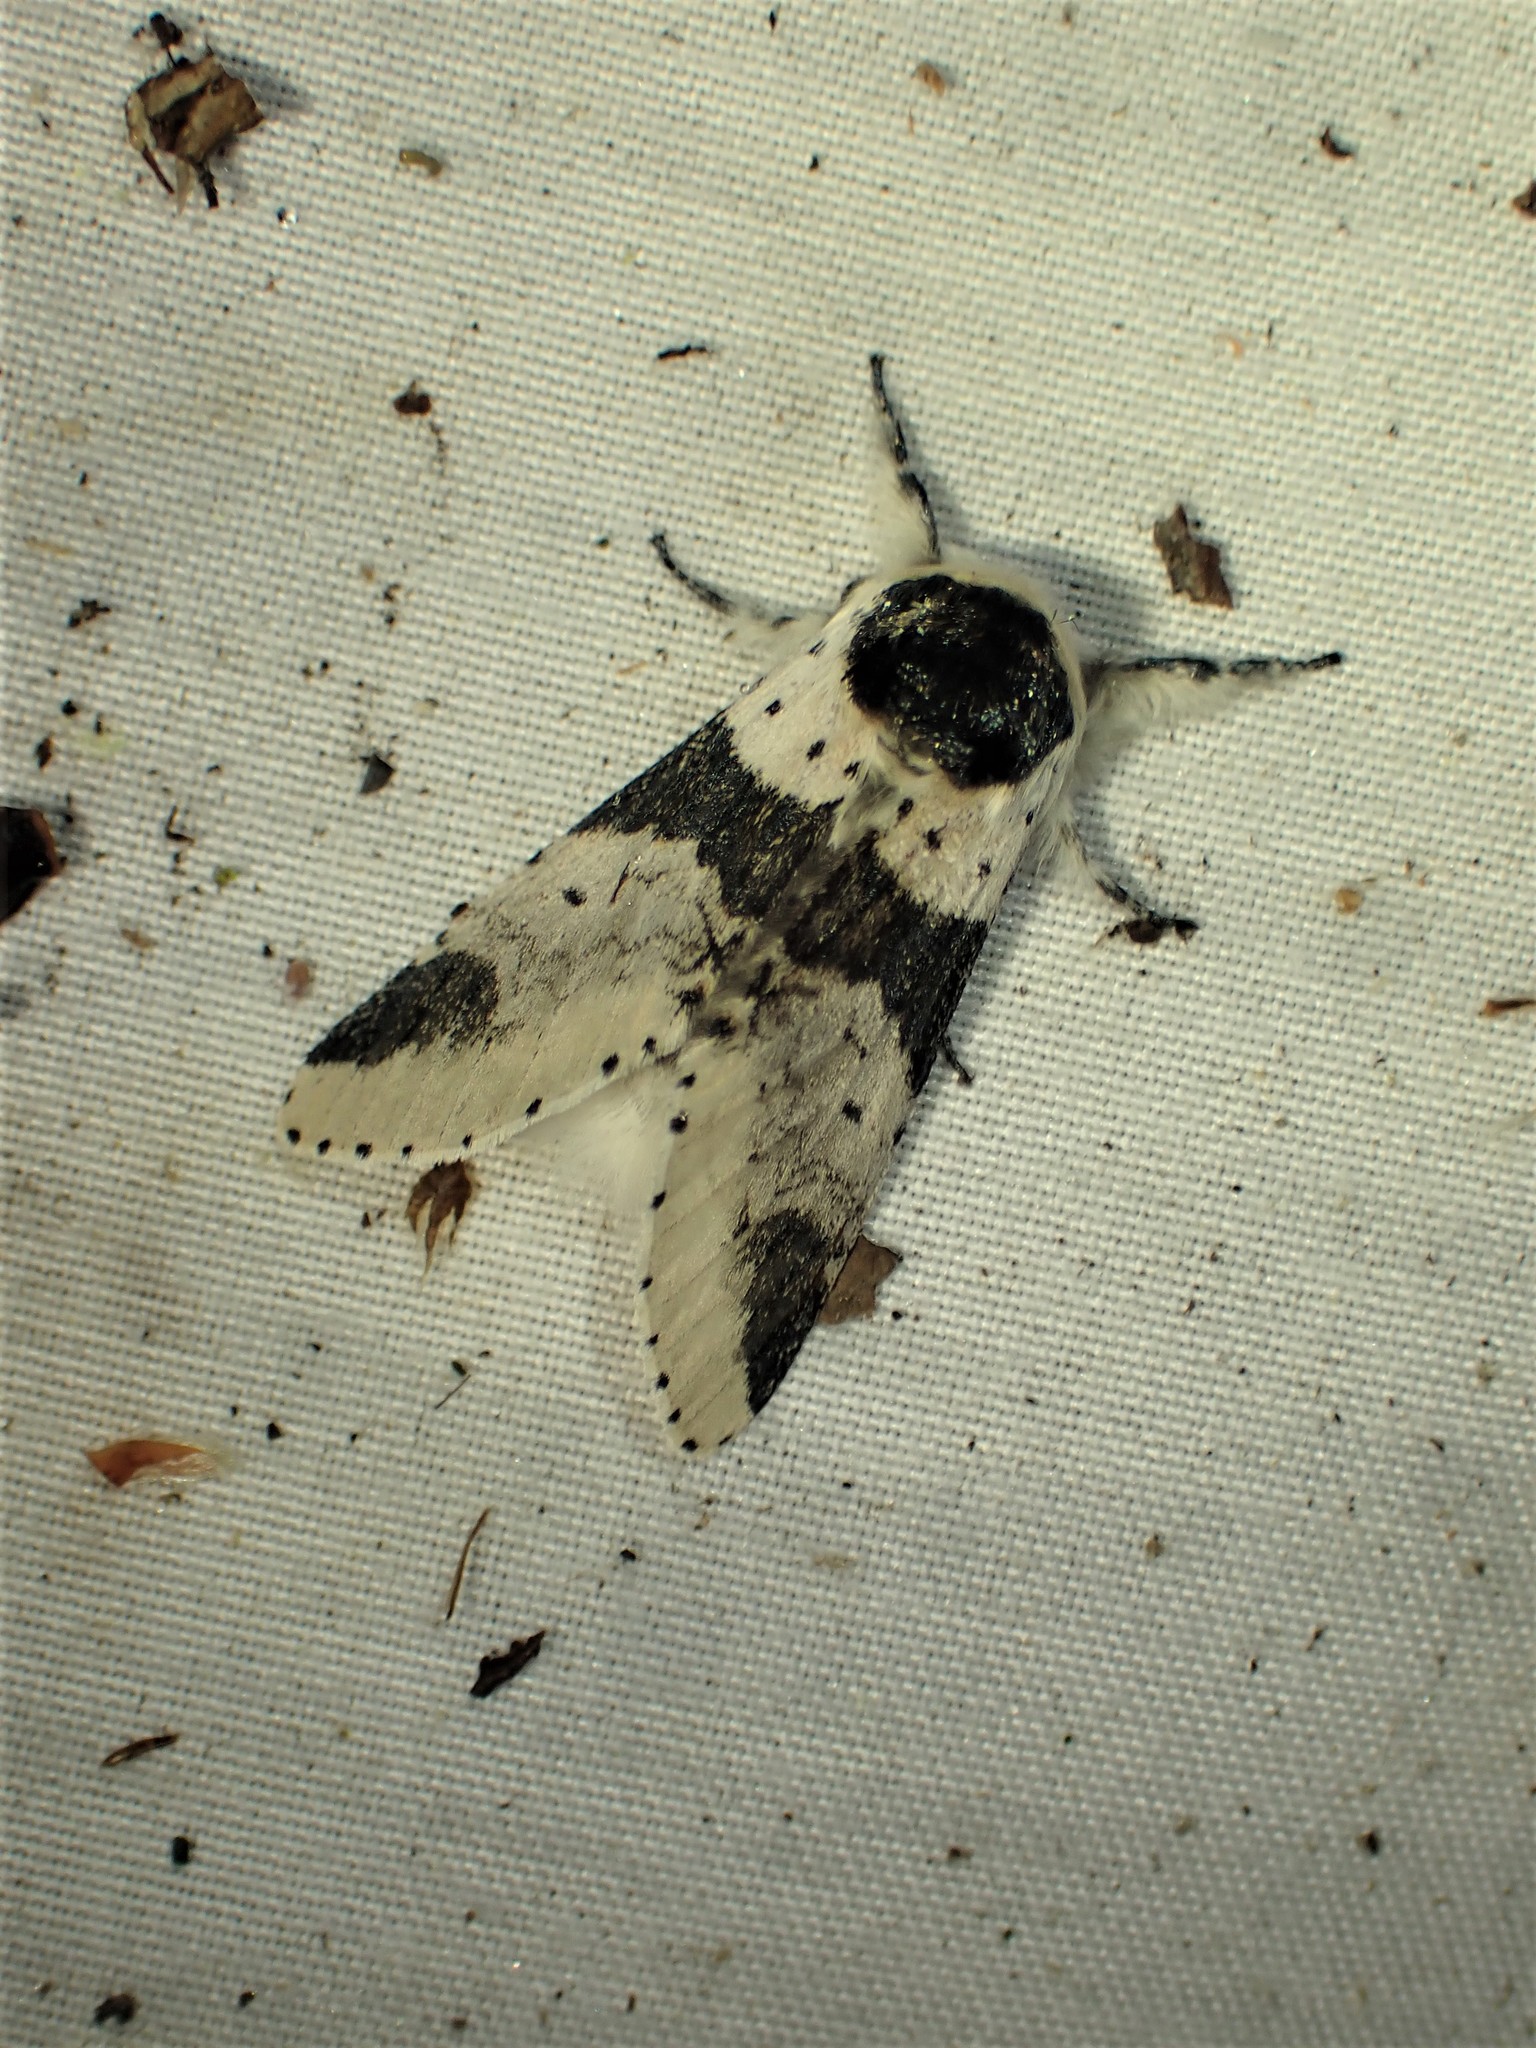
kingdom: Animalia
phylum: Arthropoda
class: Insecta
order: Lepidoptera
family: Notodontidae
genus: Furcula
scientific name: Furcula modesta
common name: Modest furcula moth
